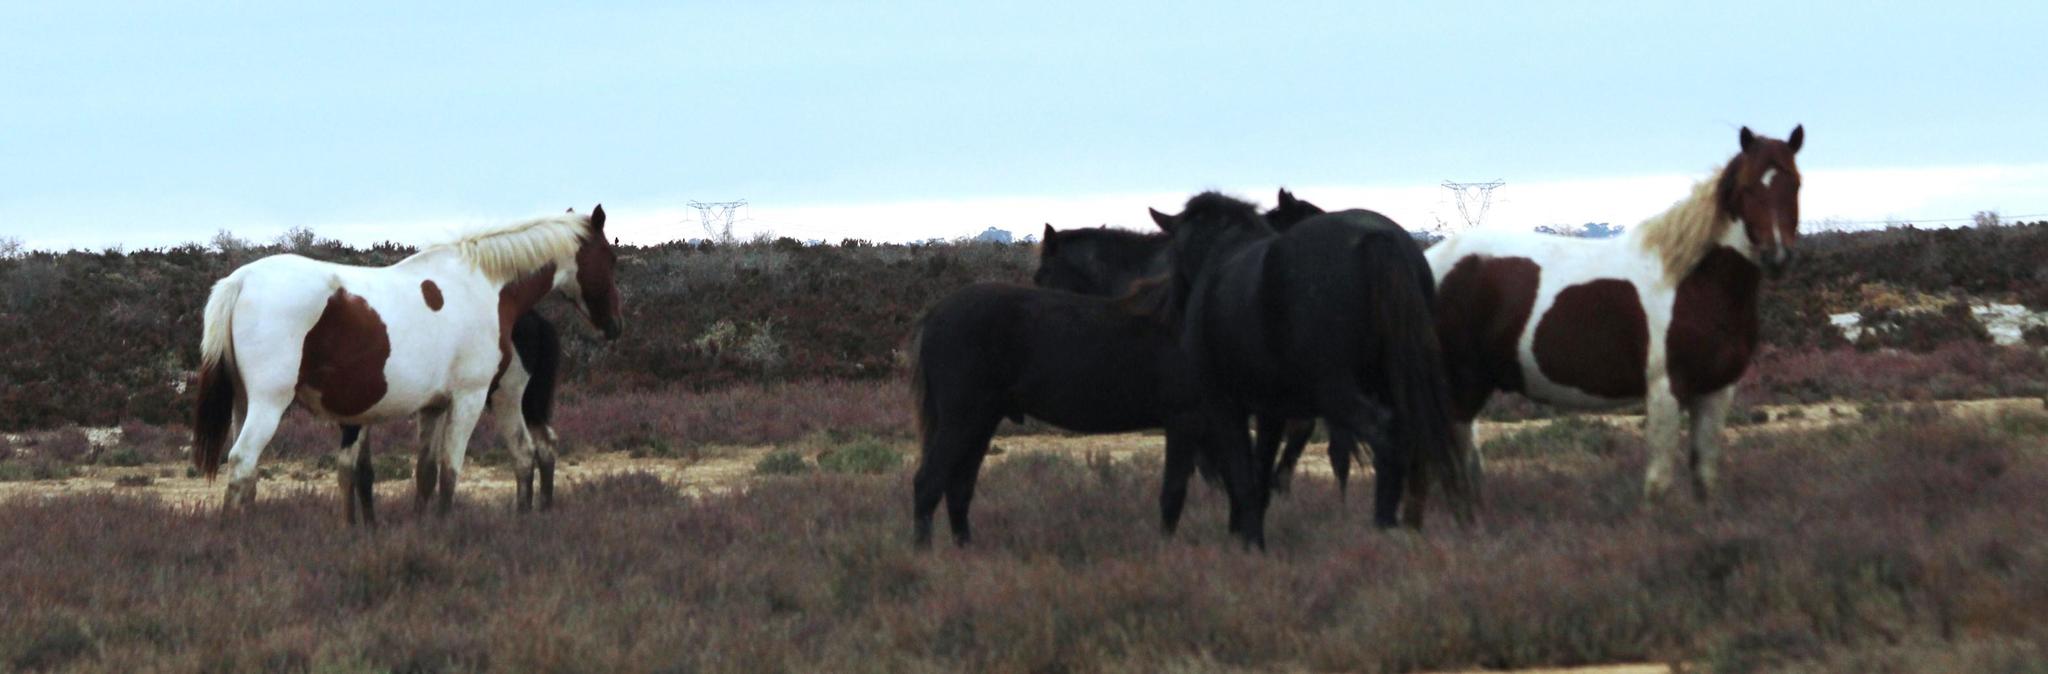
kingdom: Animalia
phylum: Chordata
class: Mammalia
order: Perissodactyla
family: Equidae
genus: Equus
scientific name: Equus caballus
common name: Horse
